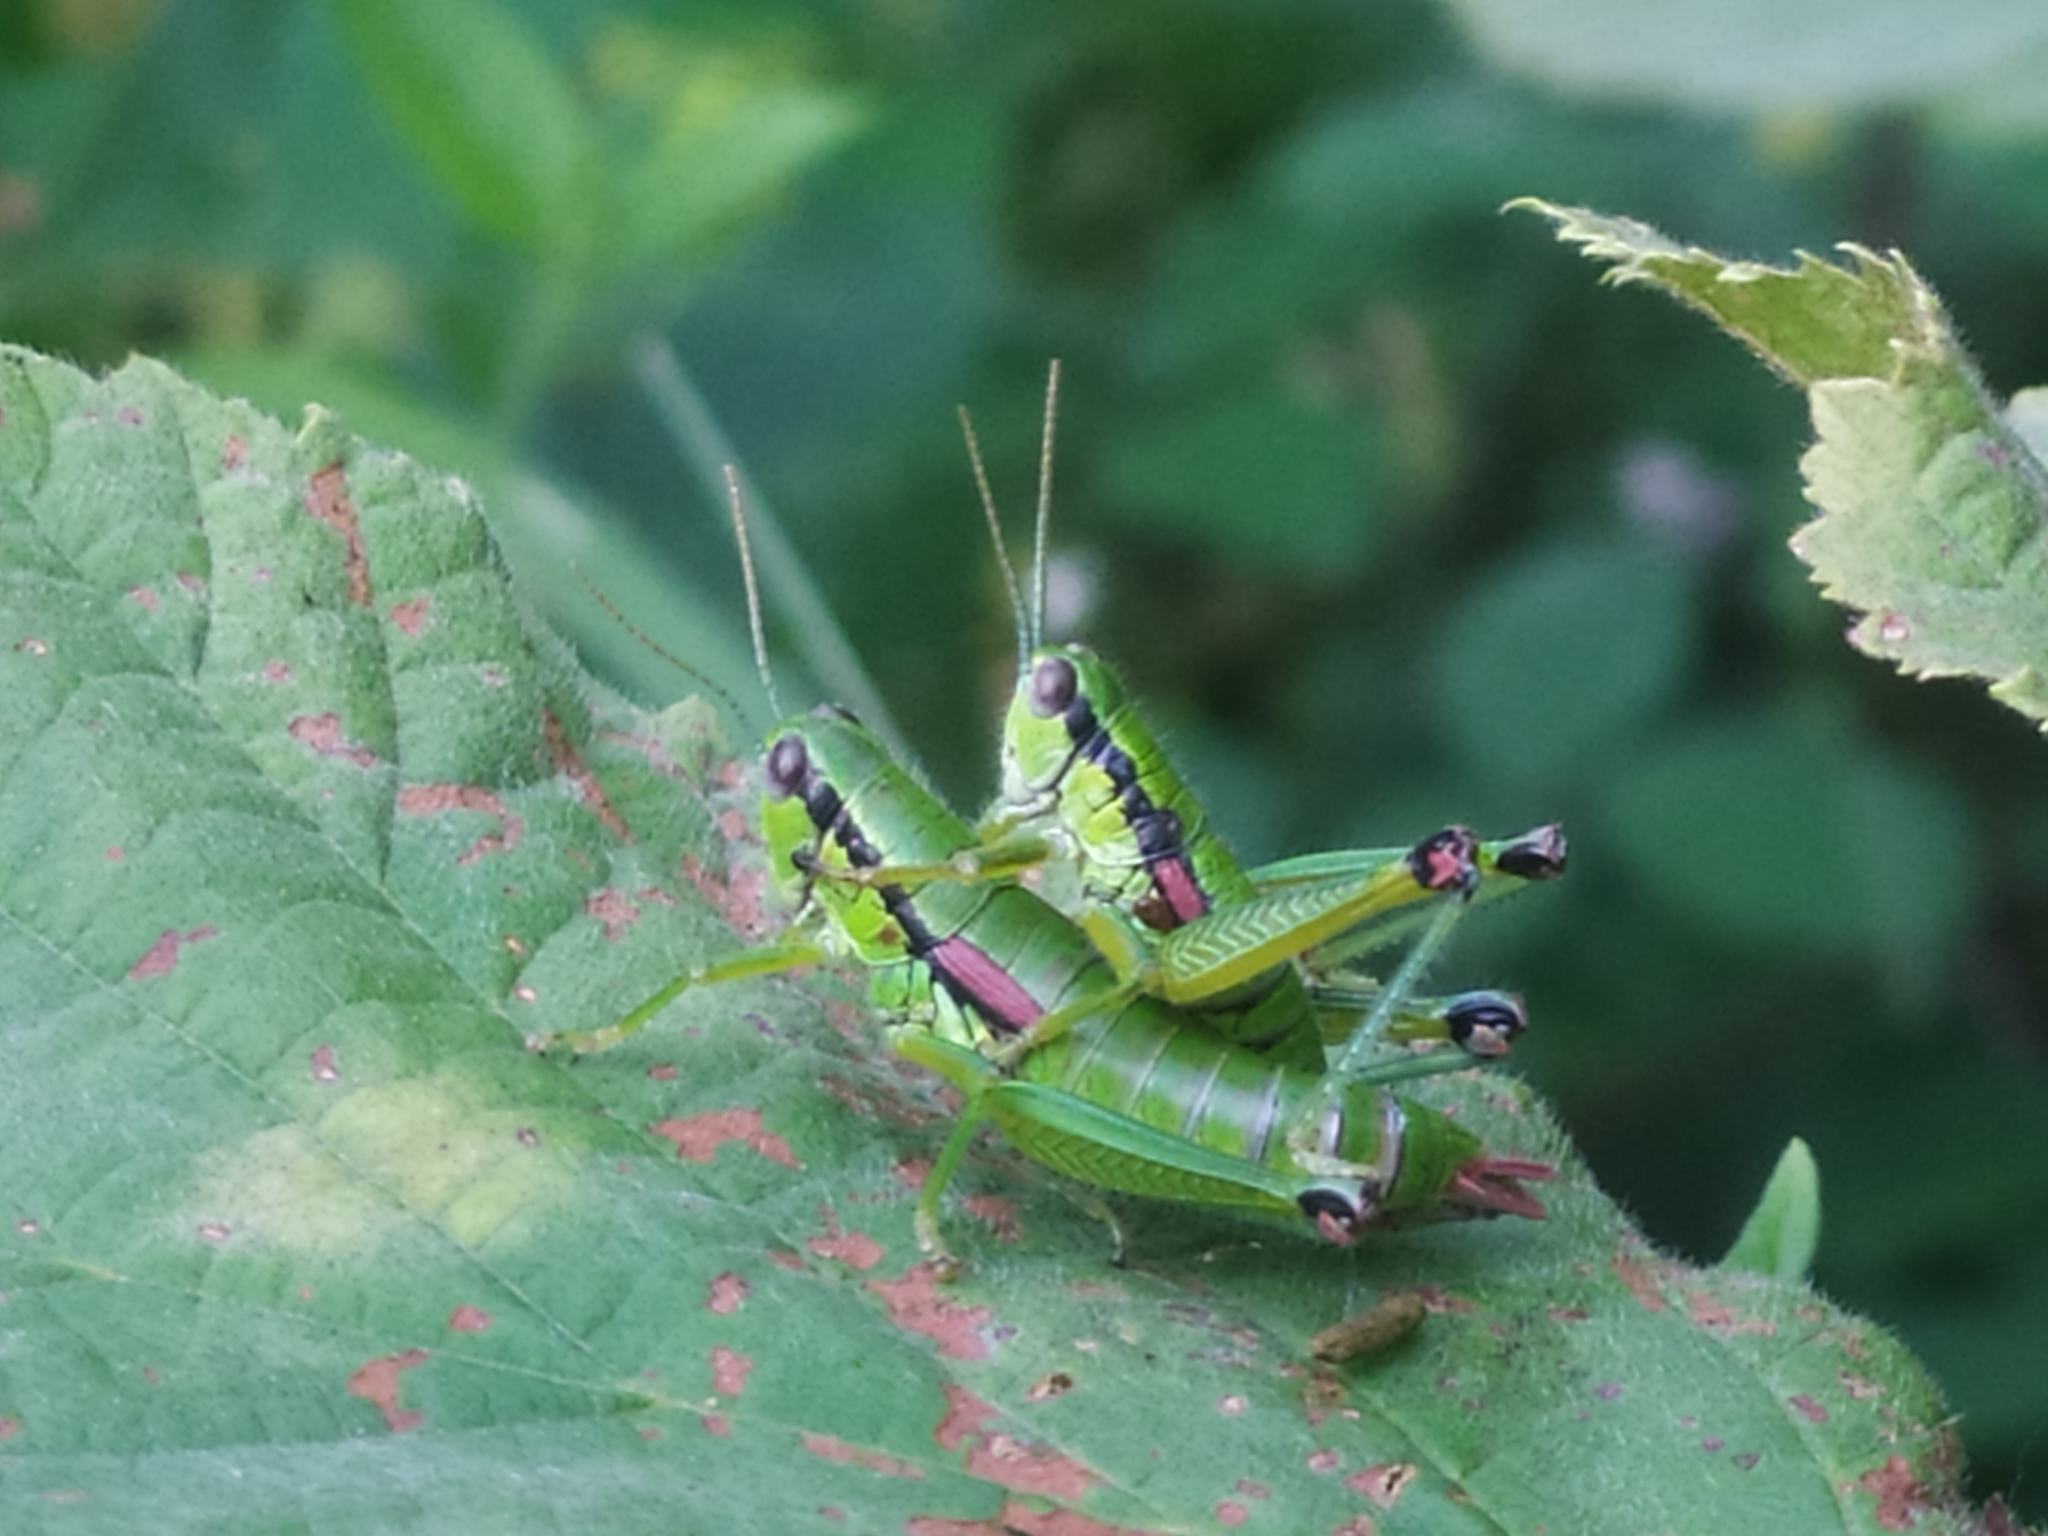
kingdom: Animalia
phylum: Arthropoda
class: Insecta
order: Orthoptera
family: Acrididae
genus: Odontopodisma
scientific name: Odontopodisma schmidtii
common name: Schmidt's mountain grasshopper
